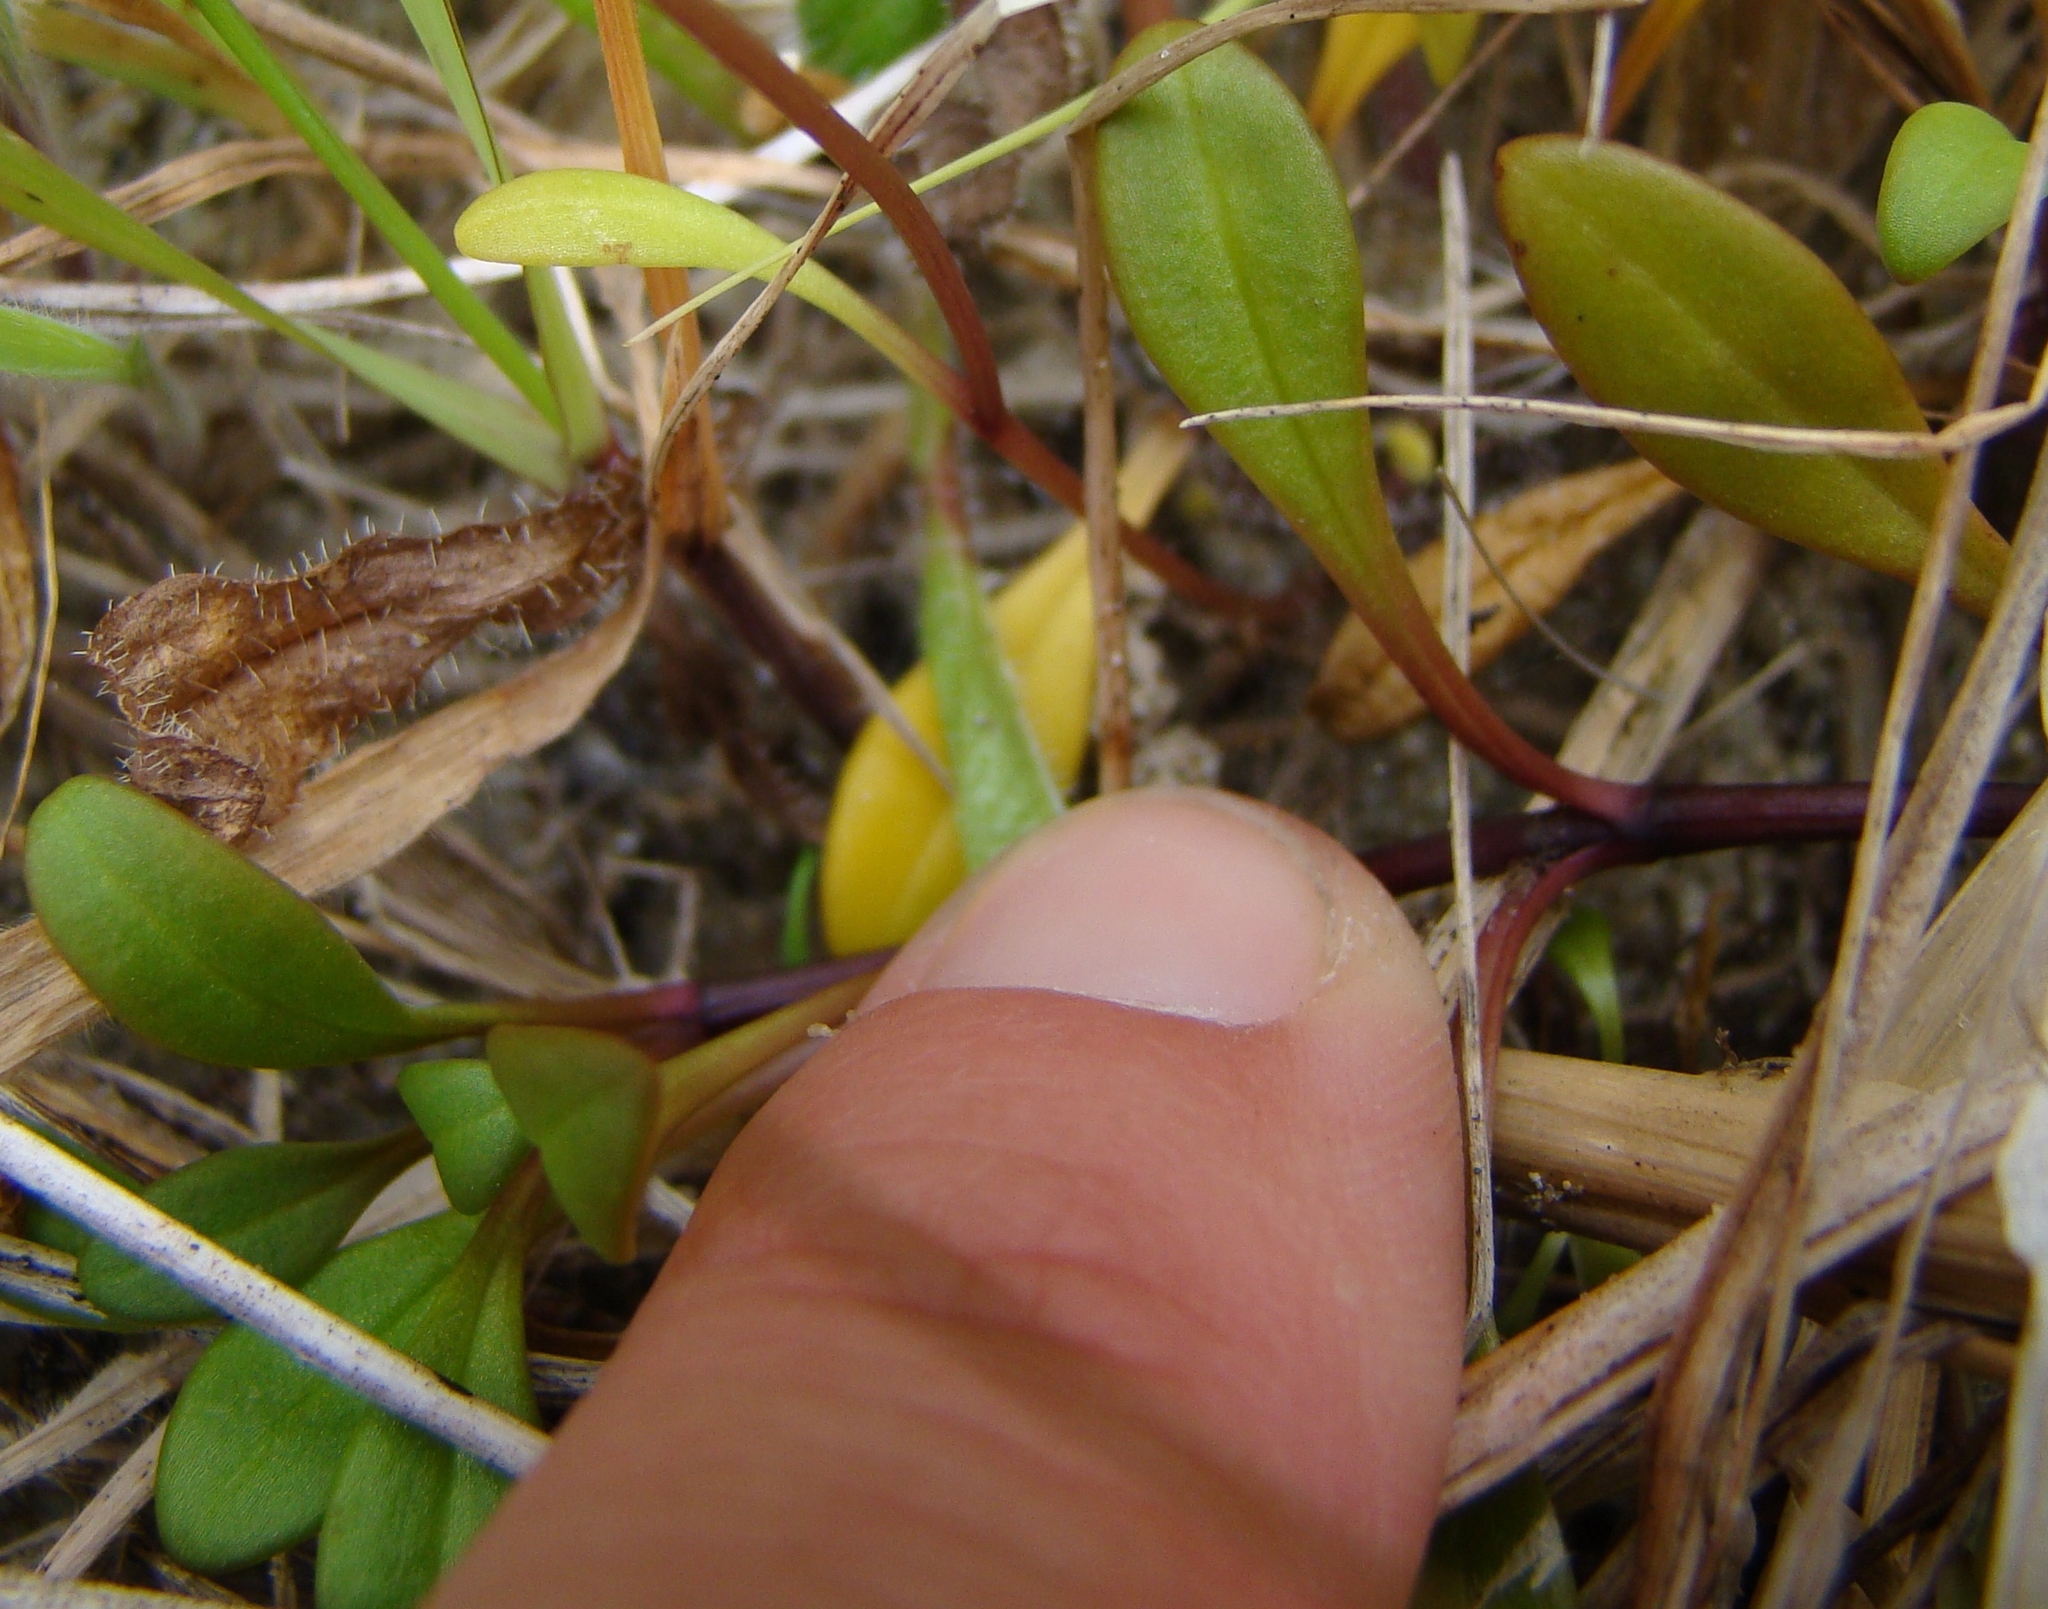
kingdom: Plantae
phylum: Tracheophyta
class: Magnoliopsida
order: Gentianales
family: Gentianaceae
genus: Gentianella
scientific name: Gentianella saxosa
